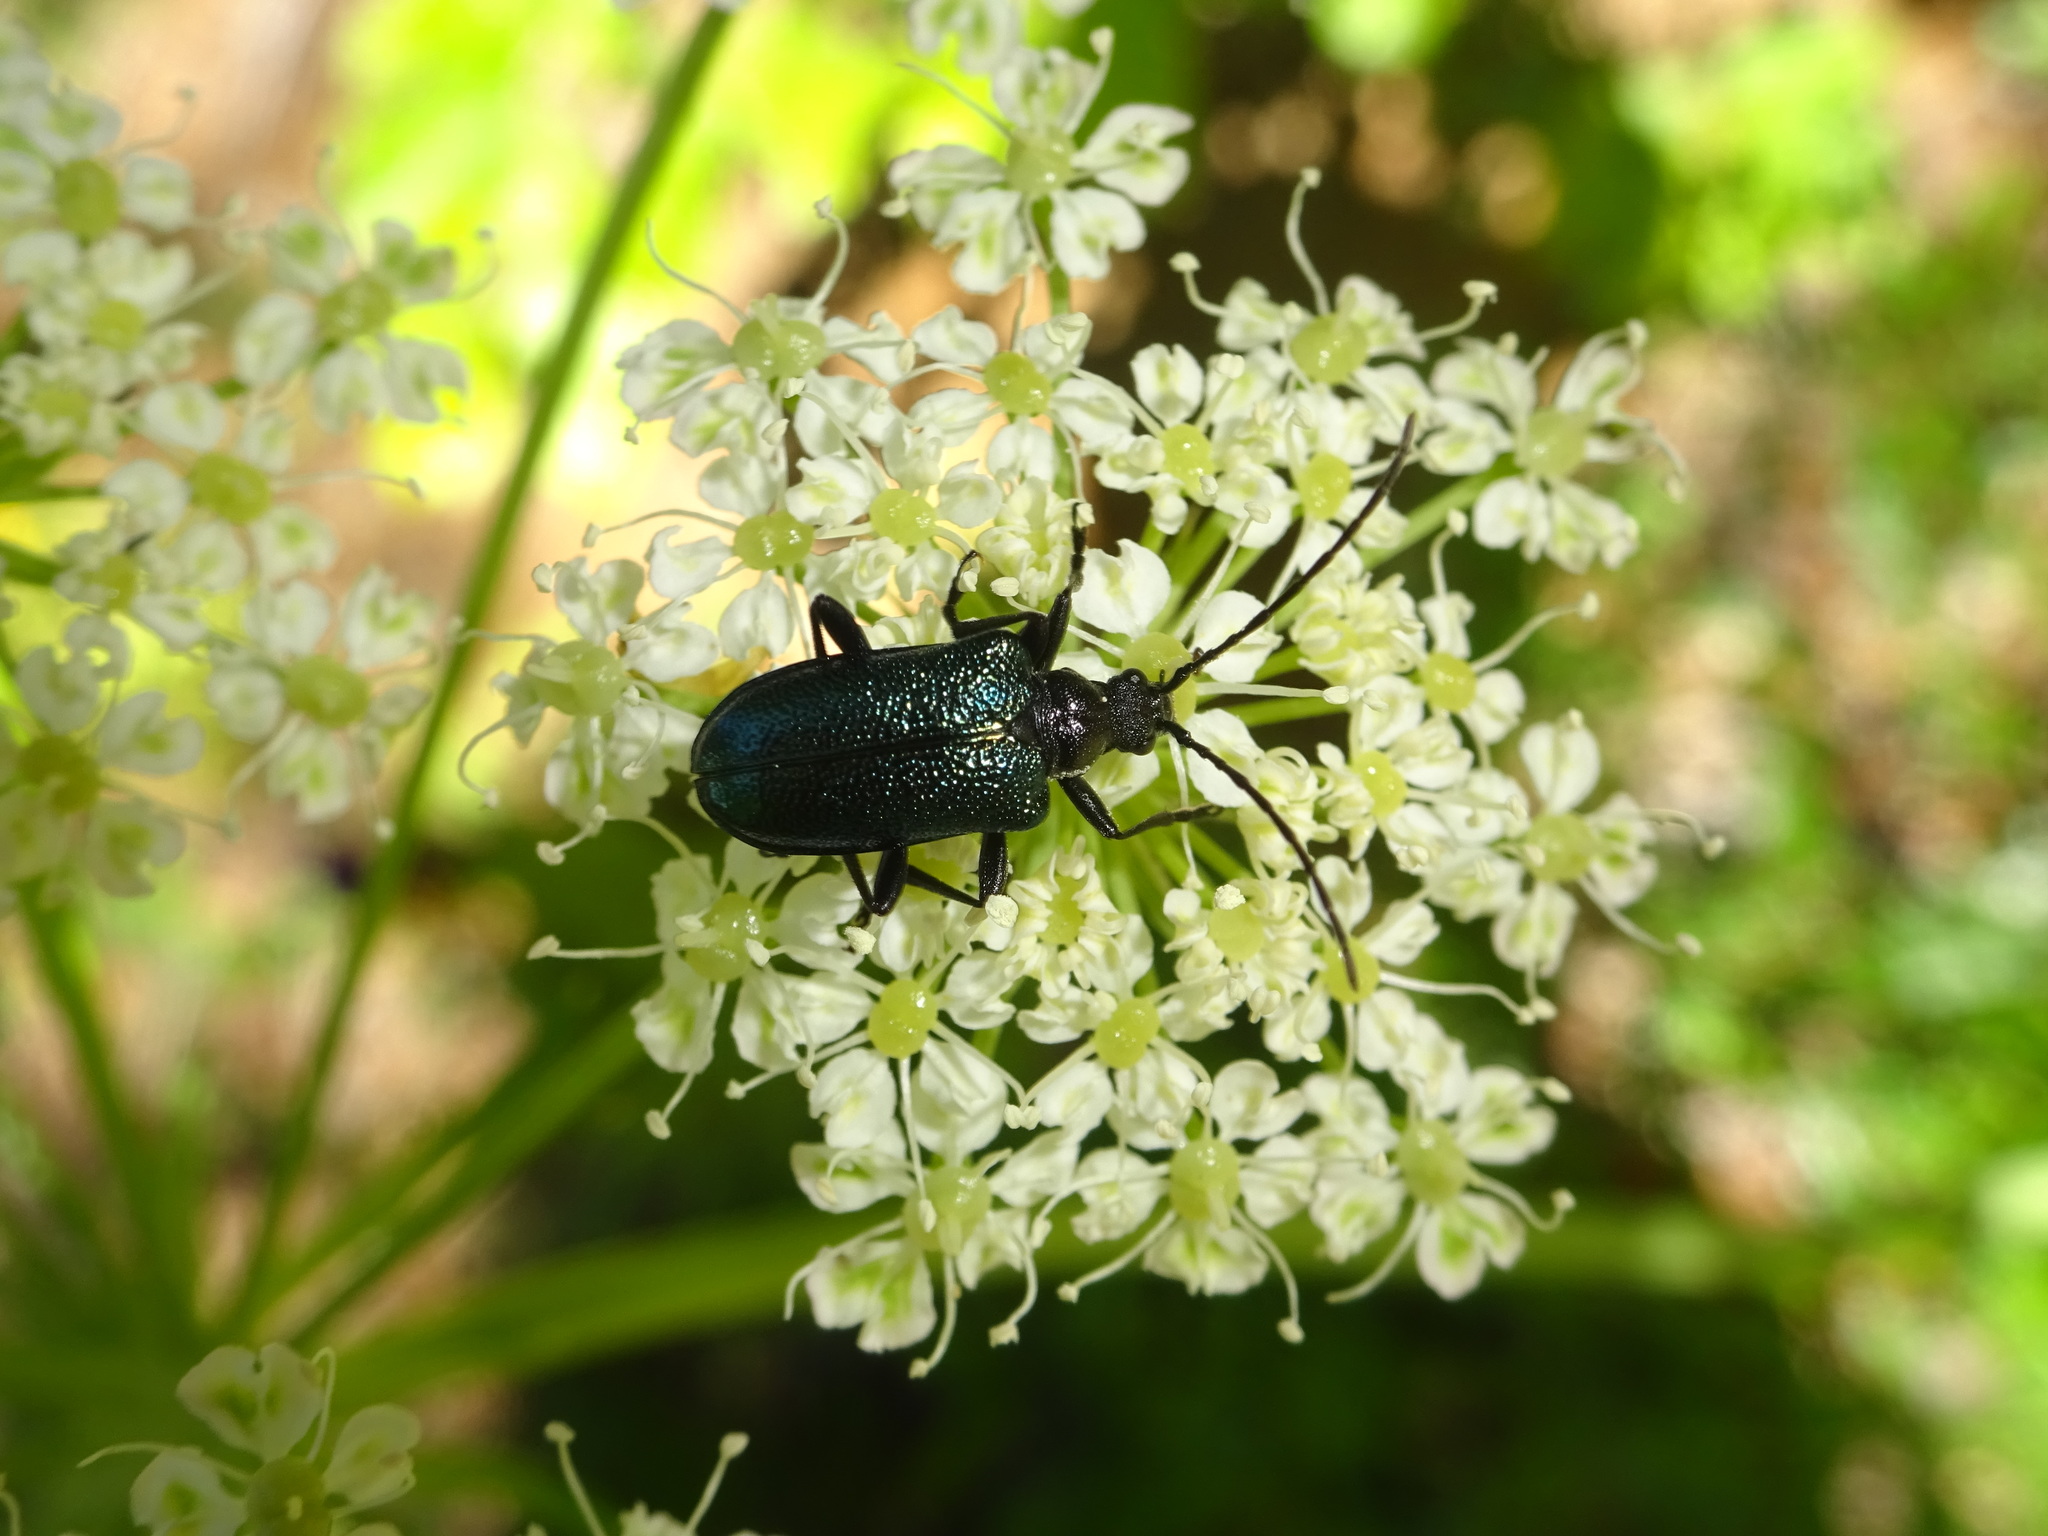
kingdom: Animalia
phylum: Arthropoda
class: Insecta
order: Coleoptera
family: Cerambycidae
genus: Gaurotes
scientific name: Gaurotes virginea
